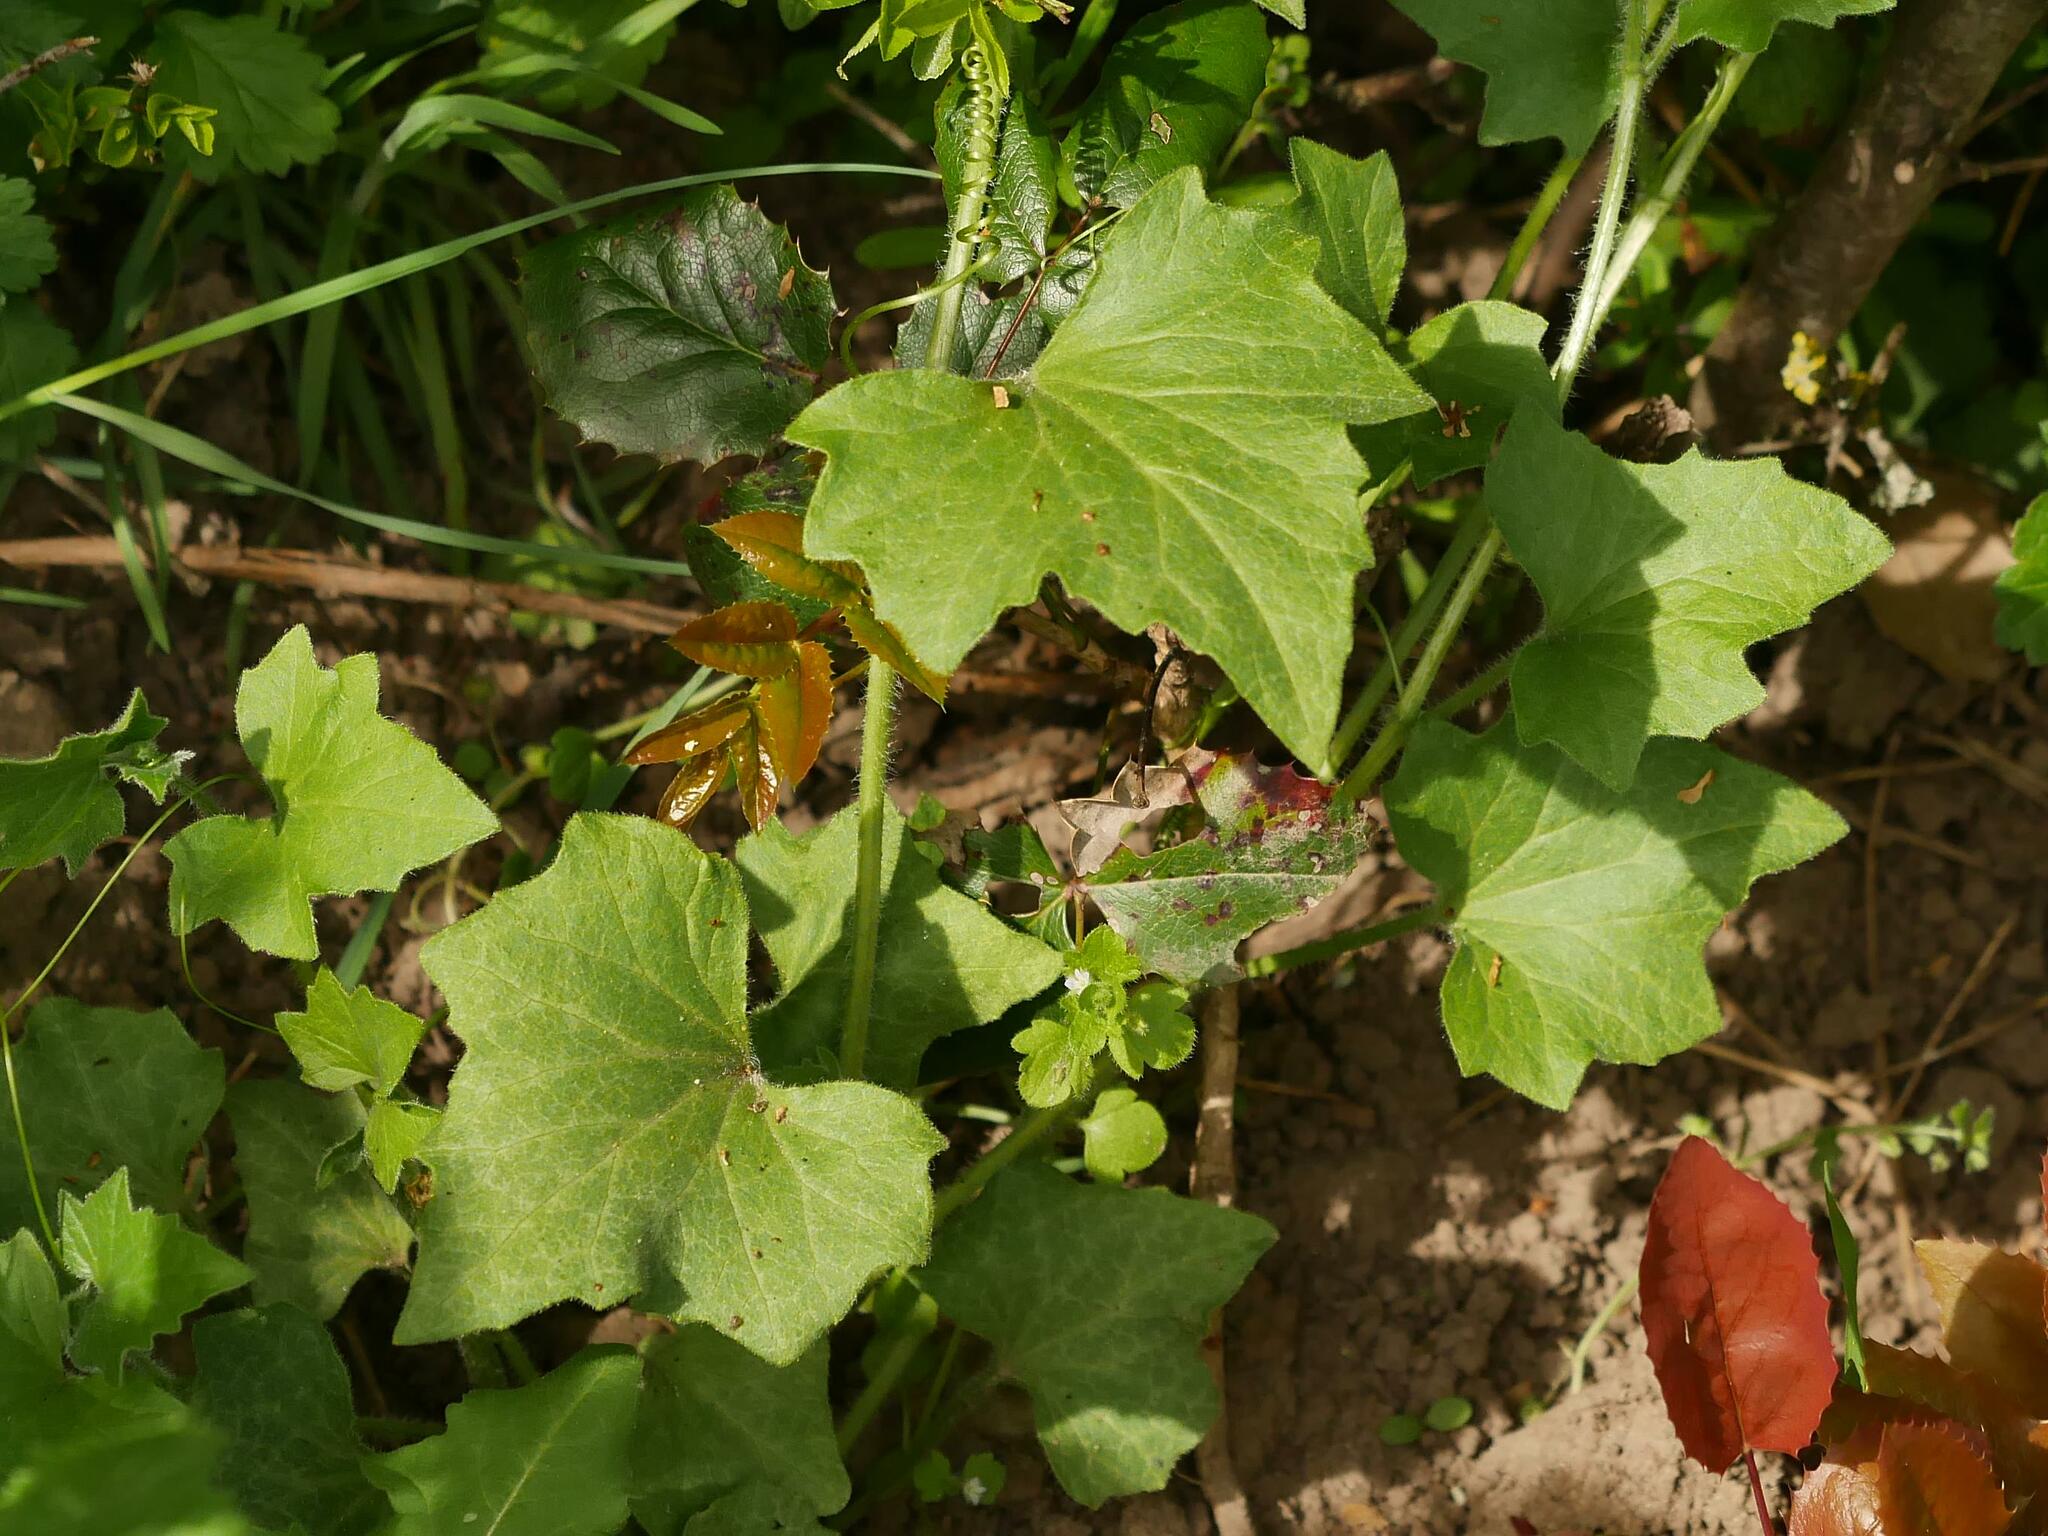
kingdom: Plantae
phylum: Tracheophyta
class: Magnoliopsida
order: Cucurbitales
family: Cucurbitaceae
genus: Bryonia
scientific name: Bryonia cretica
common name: Cretan bryony
